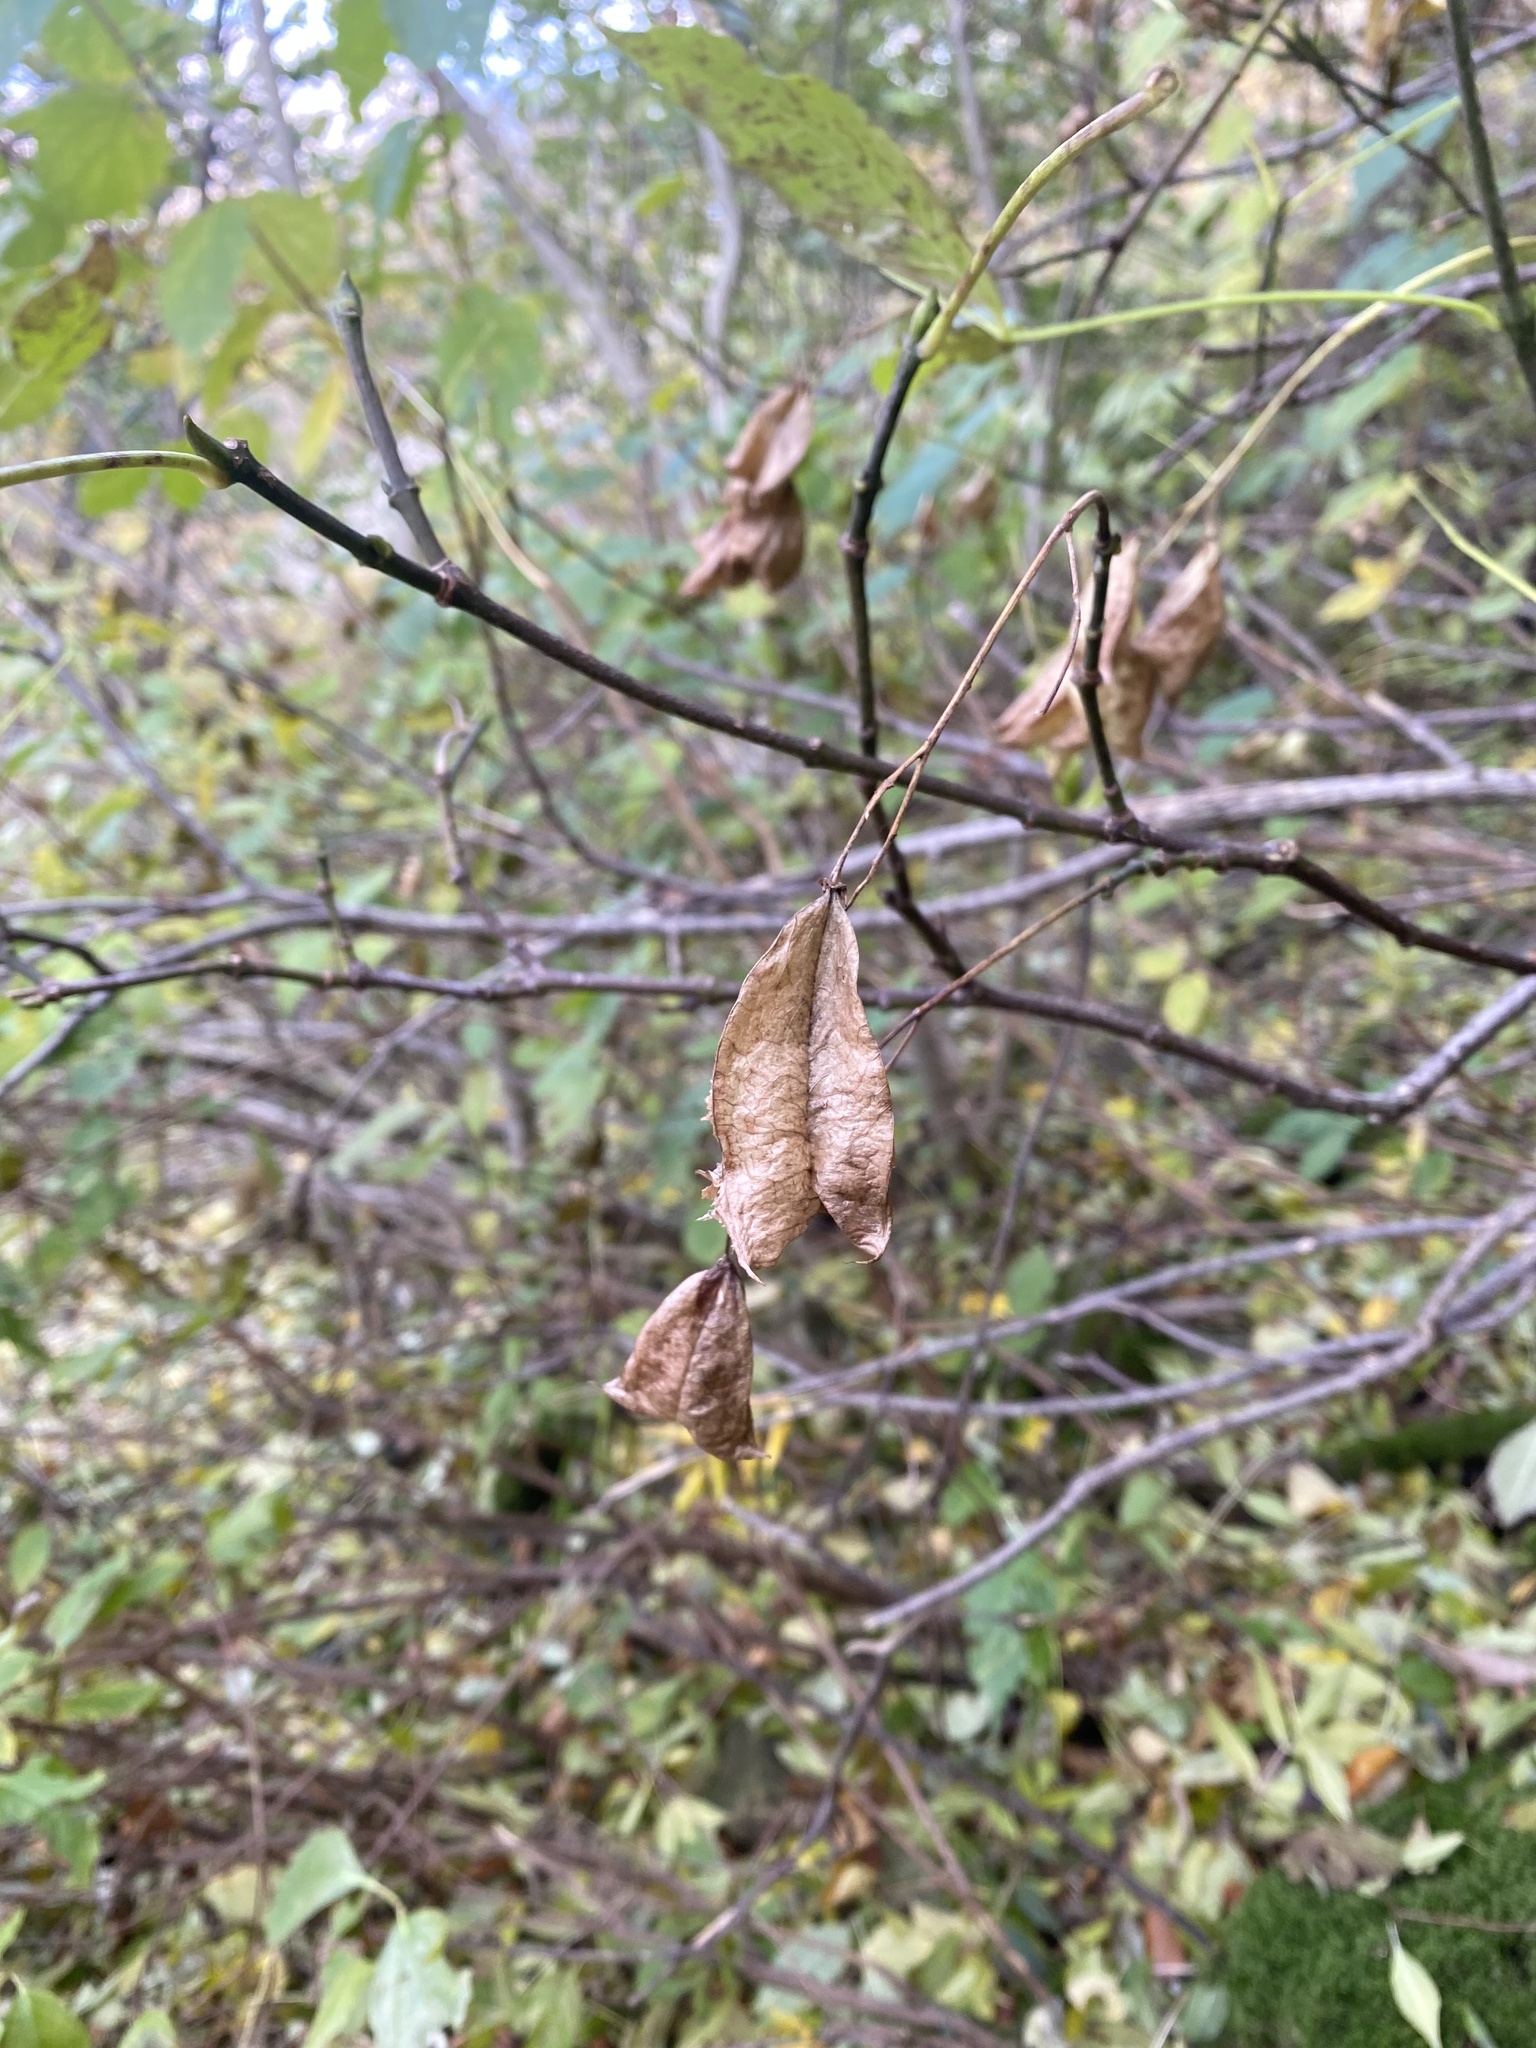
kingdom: Plantae
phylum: Tracheophyta
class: Magnoliopsida
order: Crossosomatales
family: Staphyleaceae
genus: Staphylea
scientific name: Staphylea colchica
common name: Caucasian bladdernut
